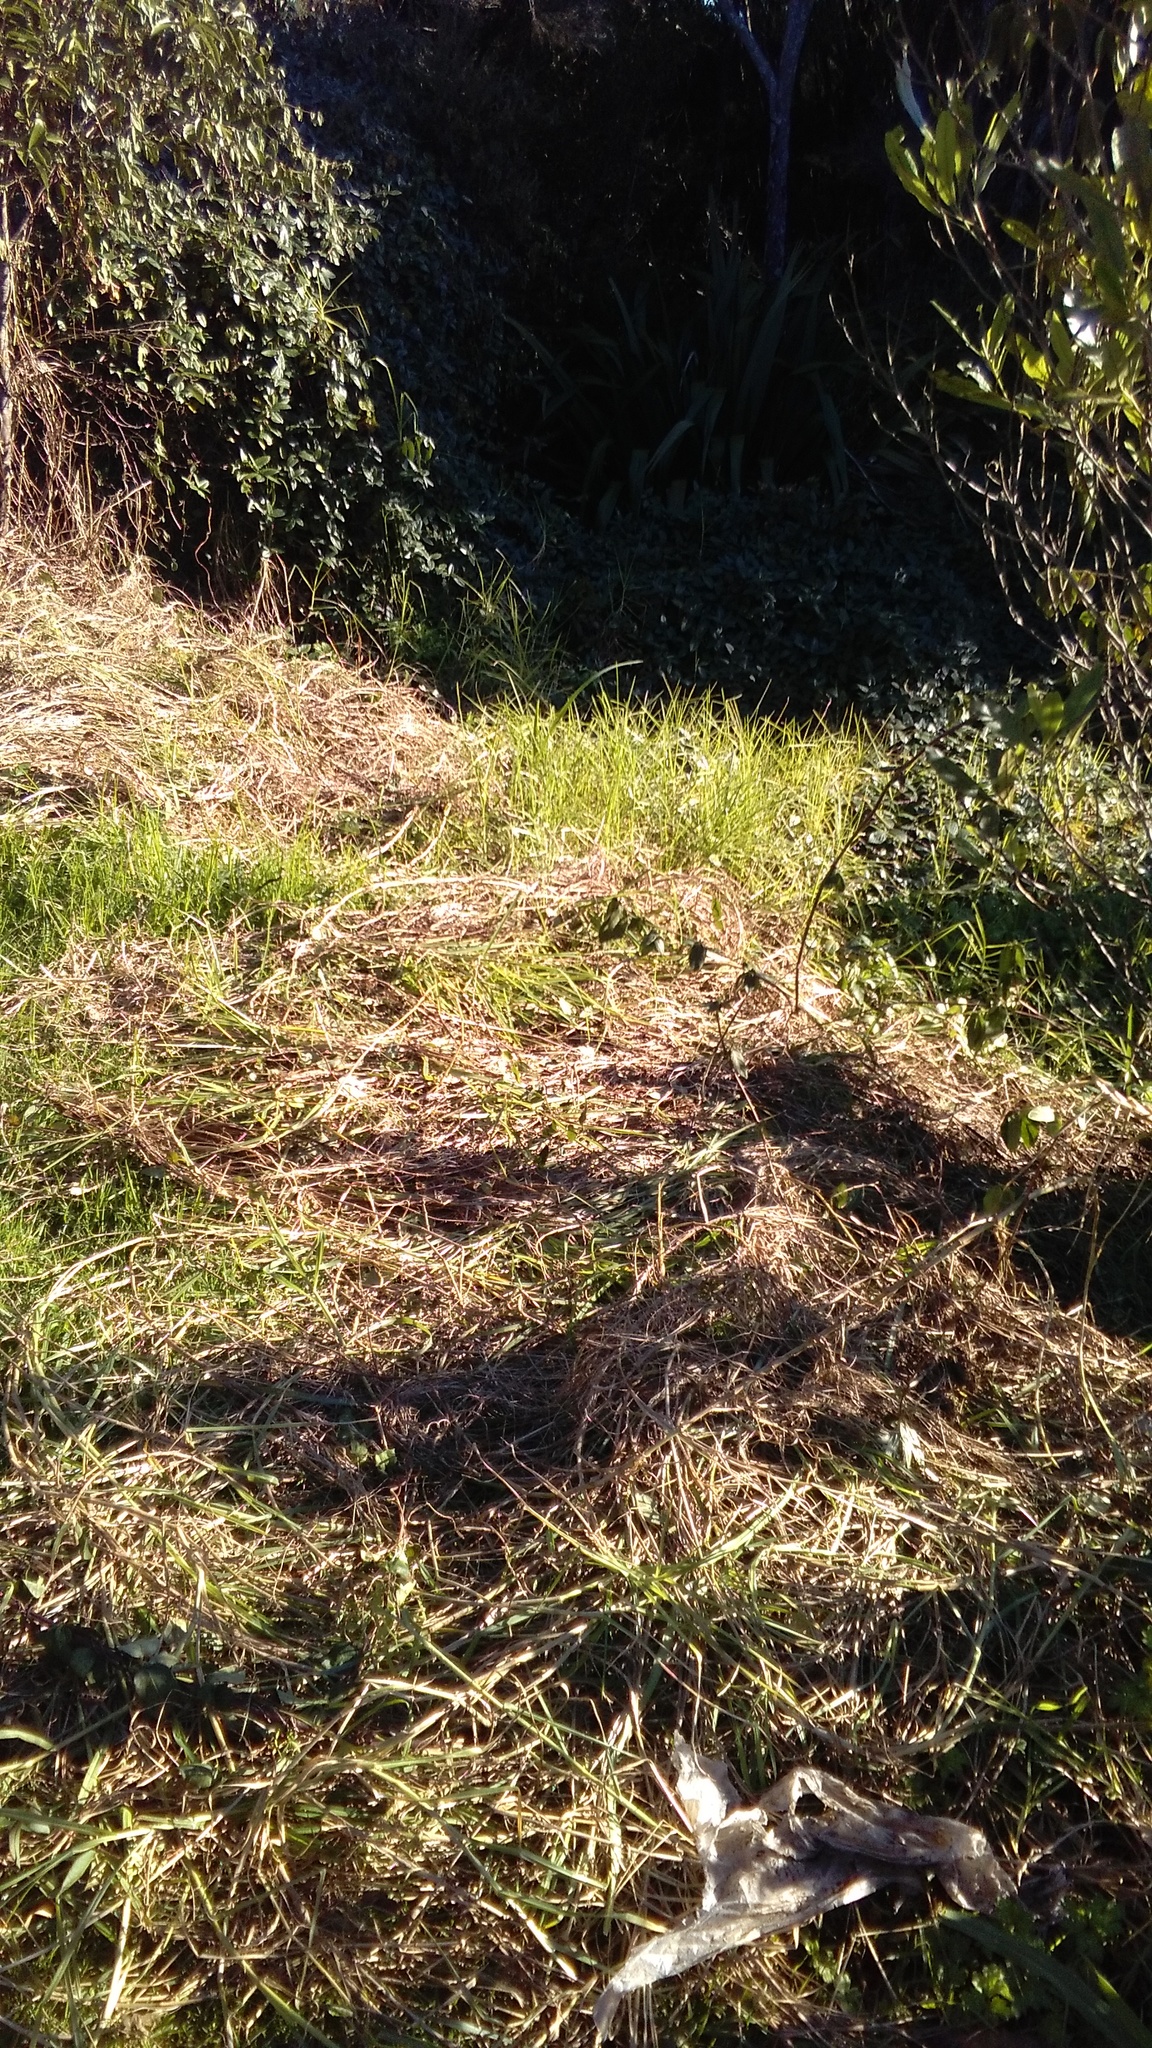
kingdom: Plantae
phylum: Tracheophyta
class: Liliopsida
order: Poales
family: Poaceae
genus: Cenchrus
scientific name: Cenchrus clandestinus
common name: Kikuyugrass
